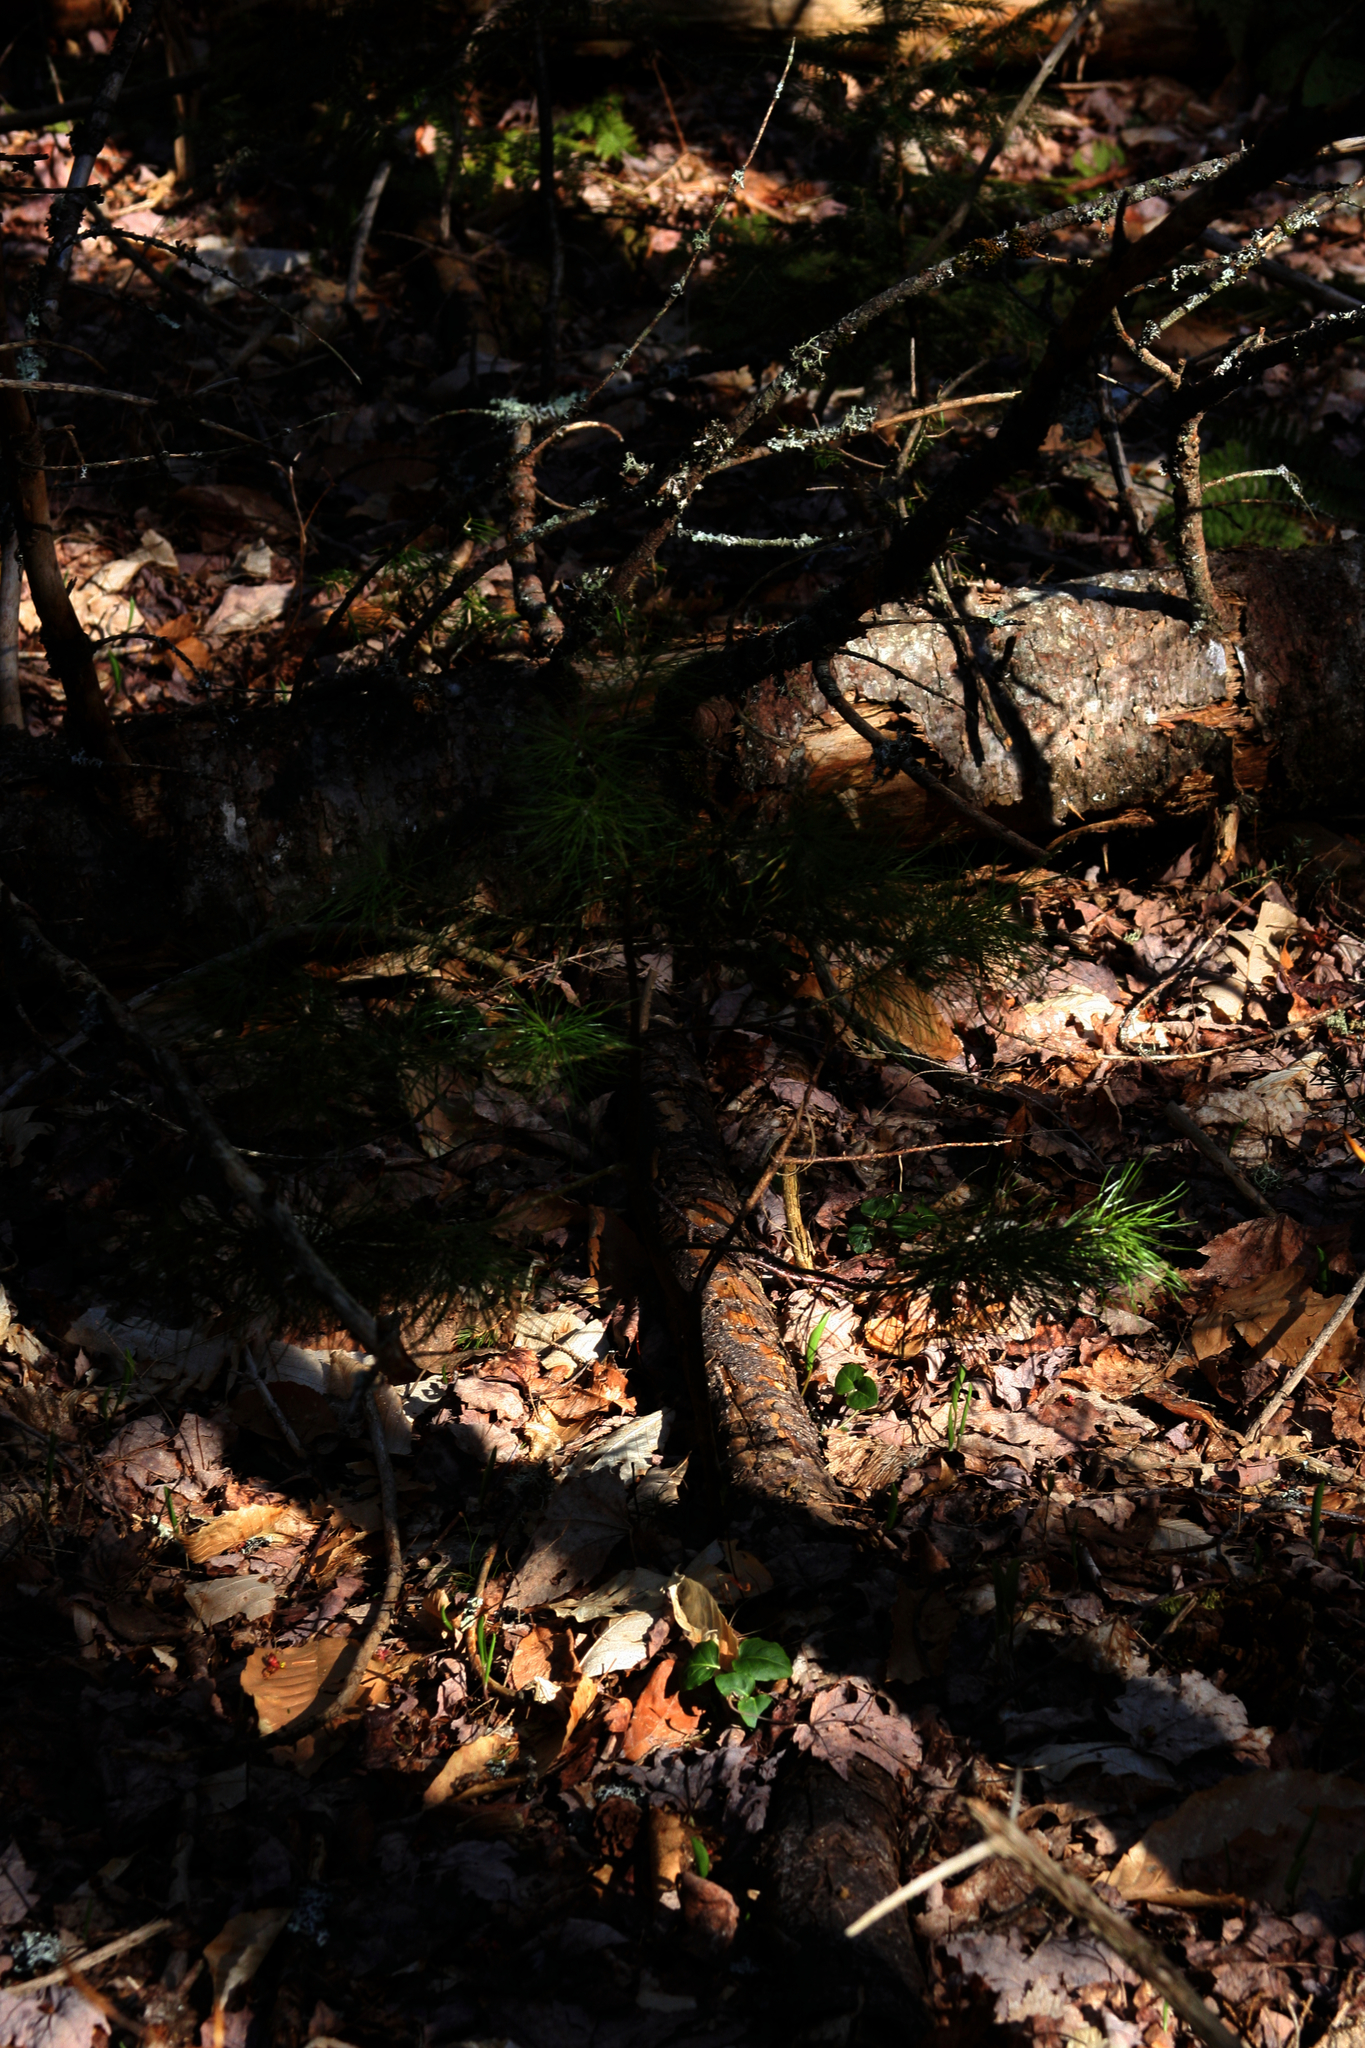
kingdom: Plantae
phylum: Tracheophyta
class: Pinopsida
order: Pinales
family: Pinaceae
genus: Pinus
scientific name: Pinus strobus
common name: Weymouth pine
